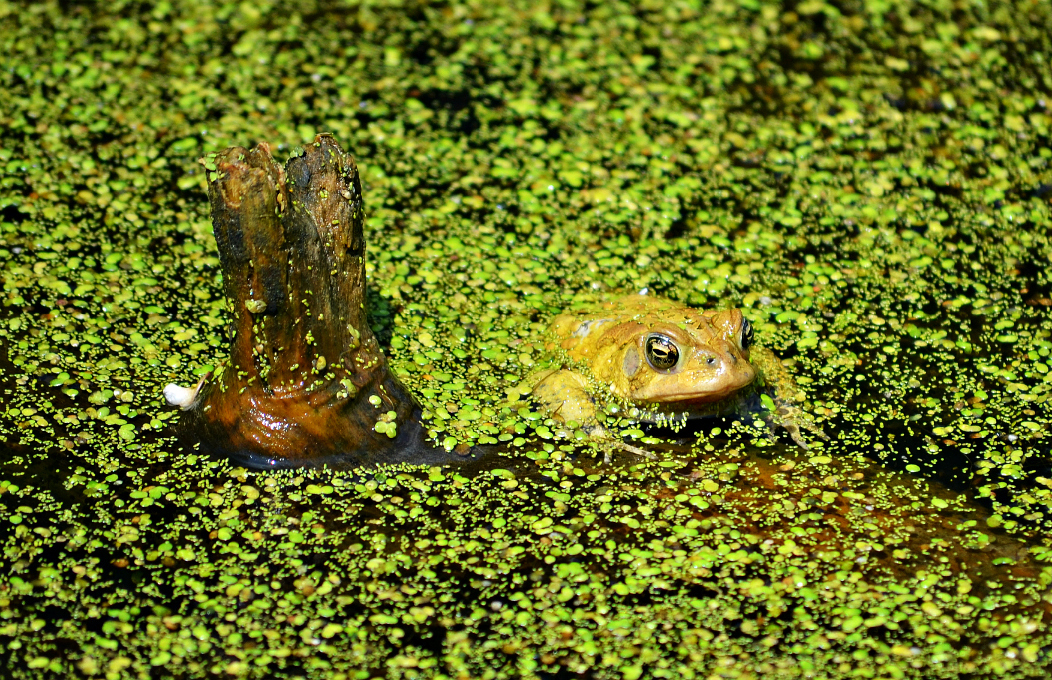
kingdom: Animalia
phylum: Chordata
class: Amphibia
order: Anura
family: Bufonidae
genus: Anaxyrus
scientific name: Anaxyrus americanus
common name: American toad
